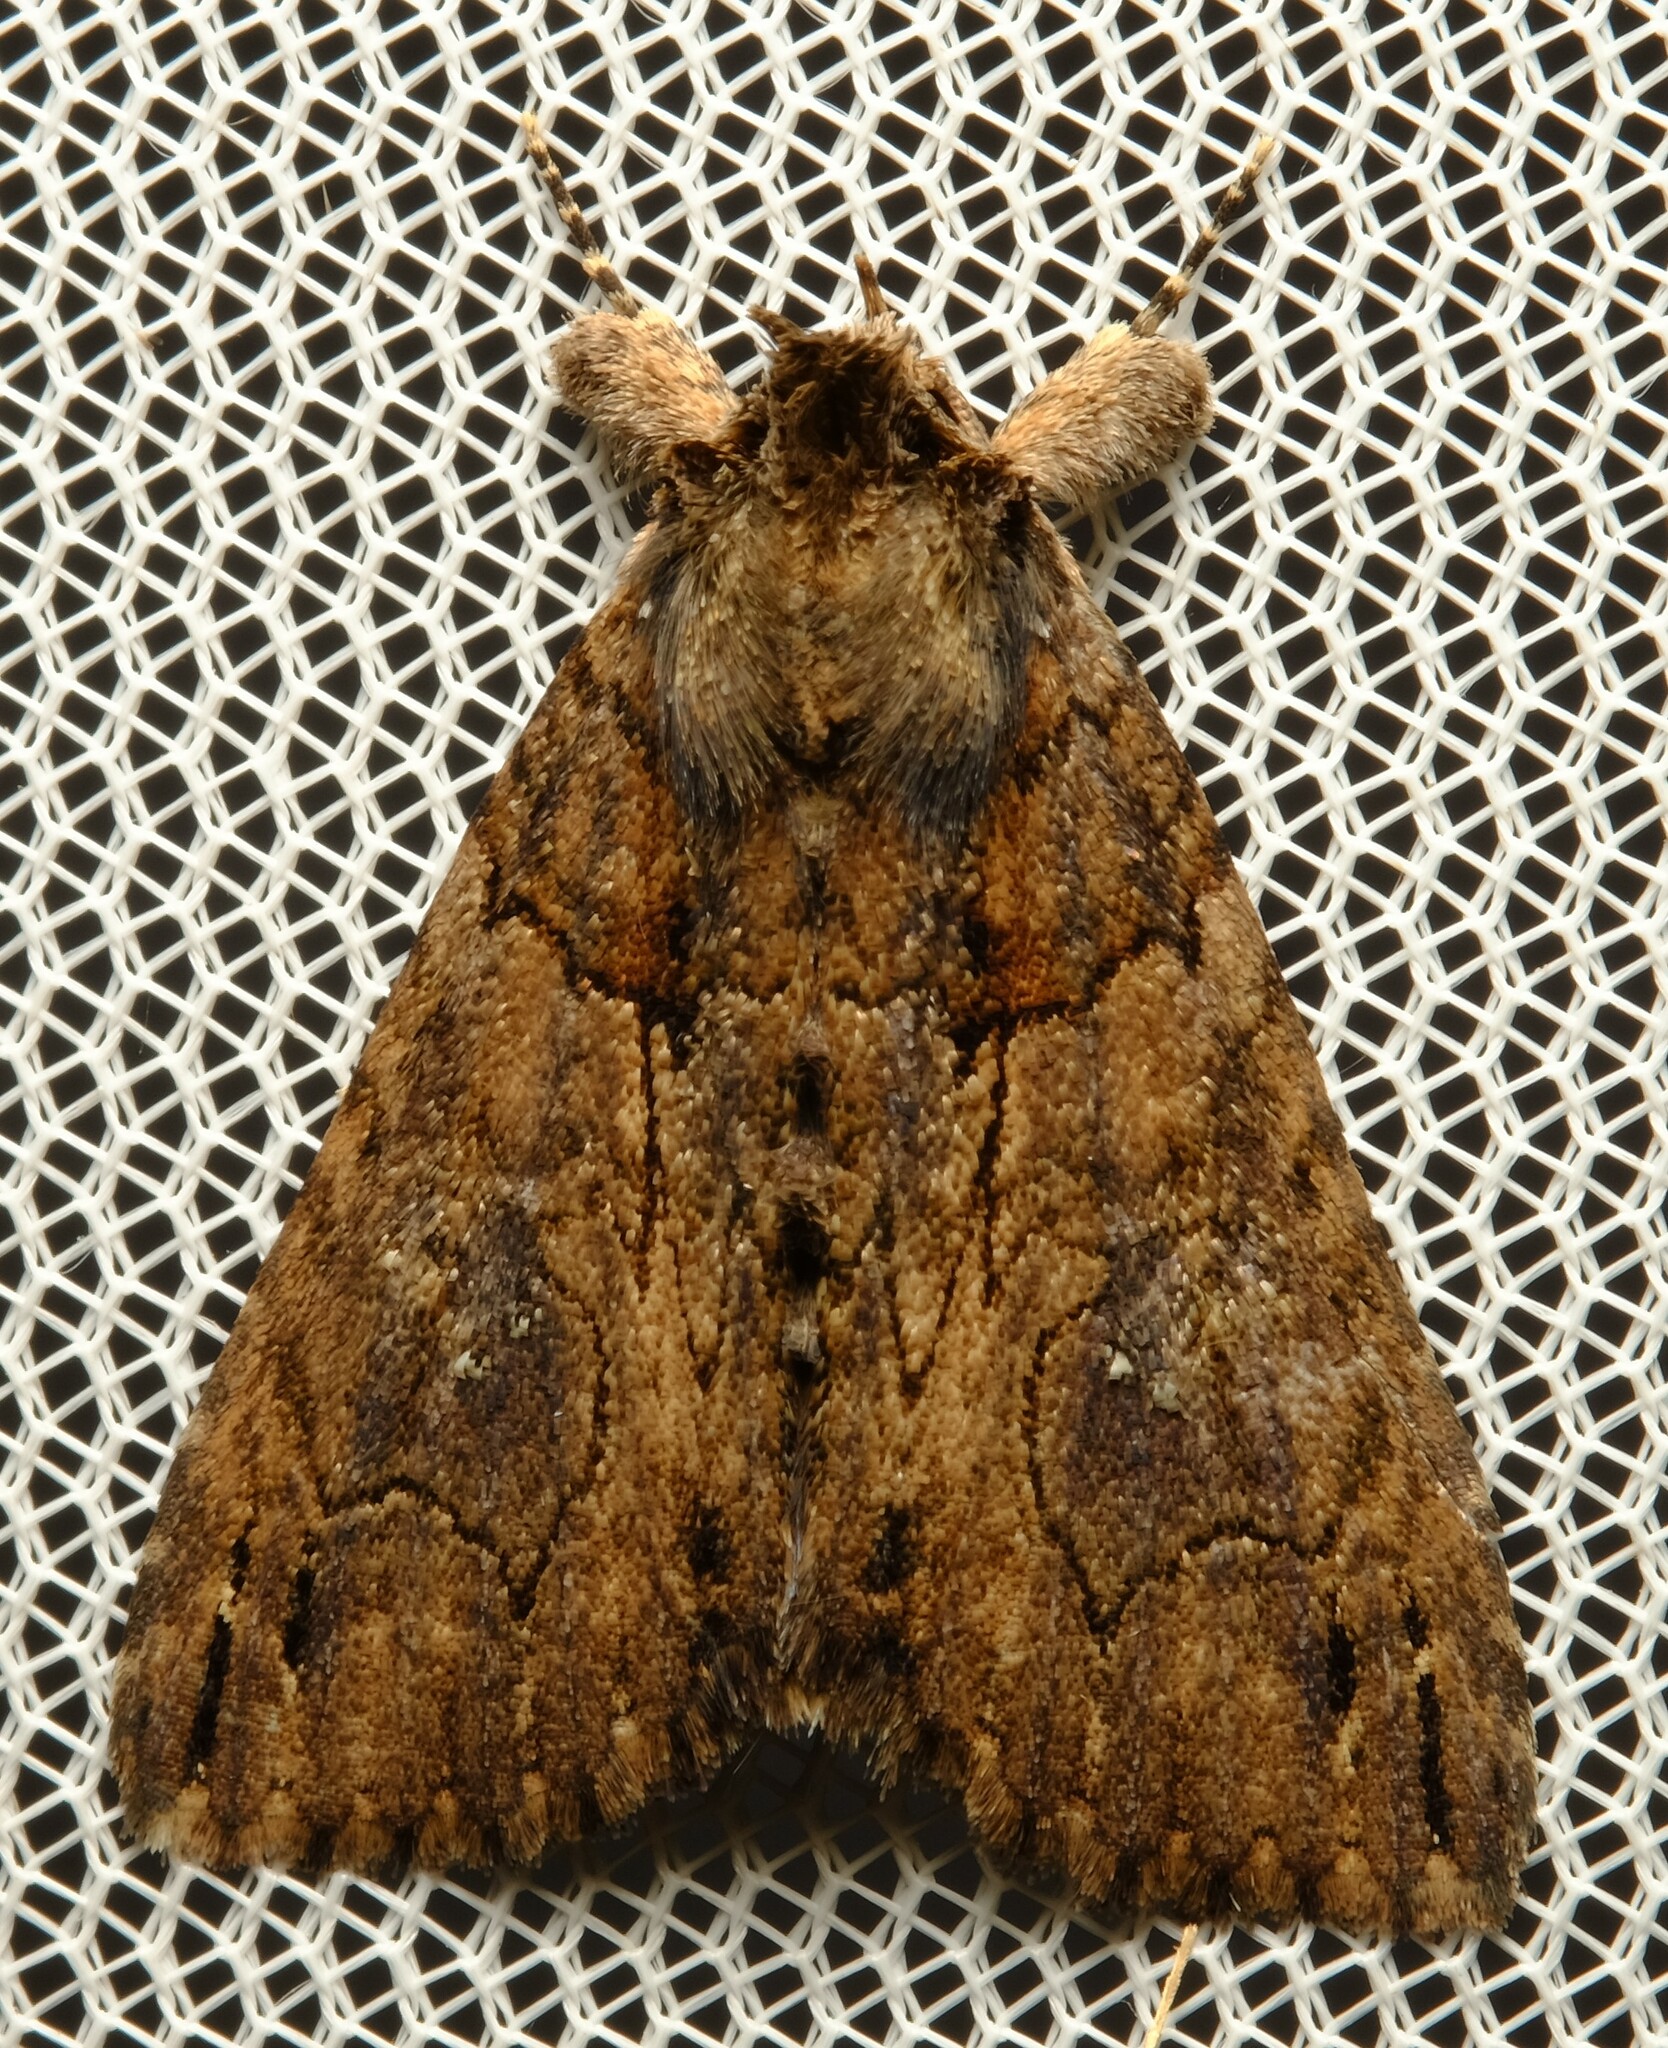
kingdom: Animalia
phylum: Arthropoda
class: Insecta
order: Lepidoptera
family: Erebidae
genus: Crioa
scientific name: Crioa hades
